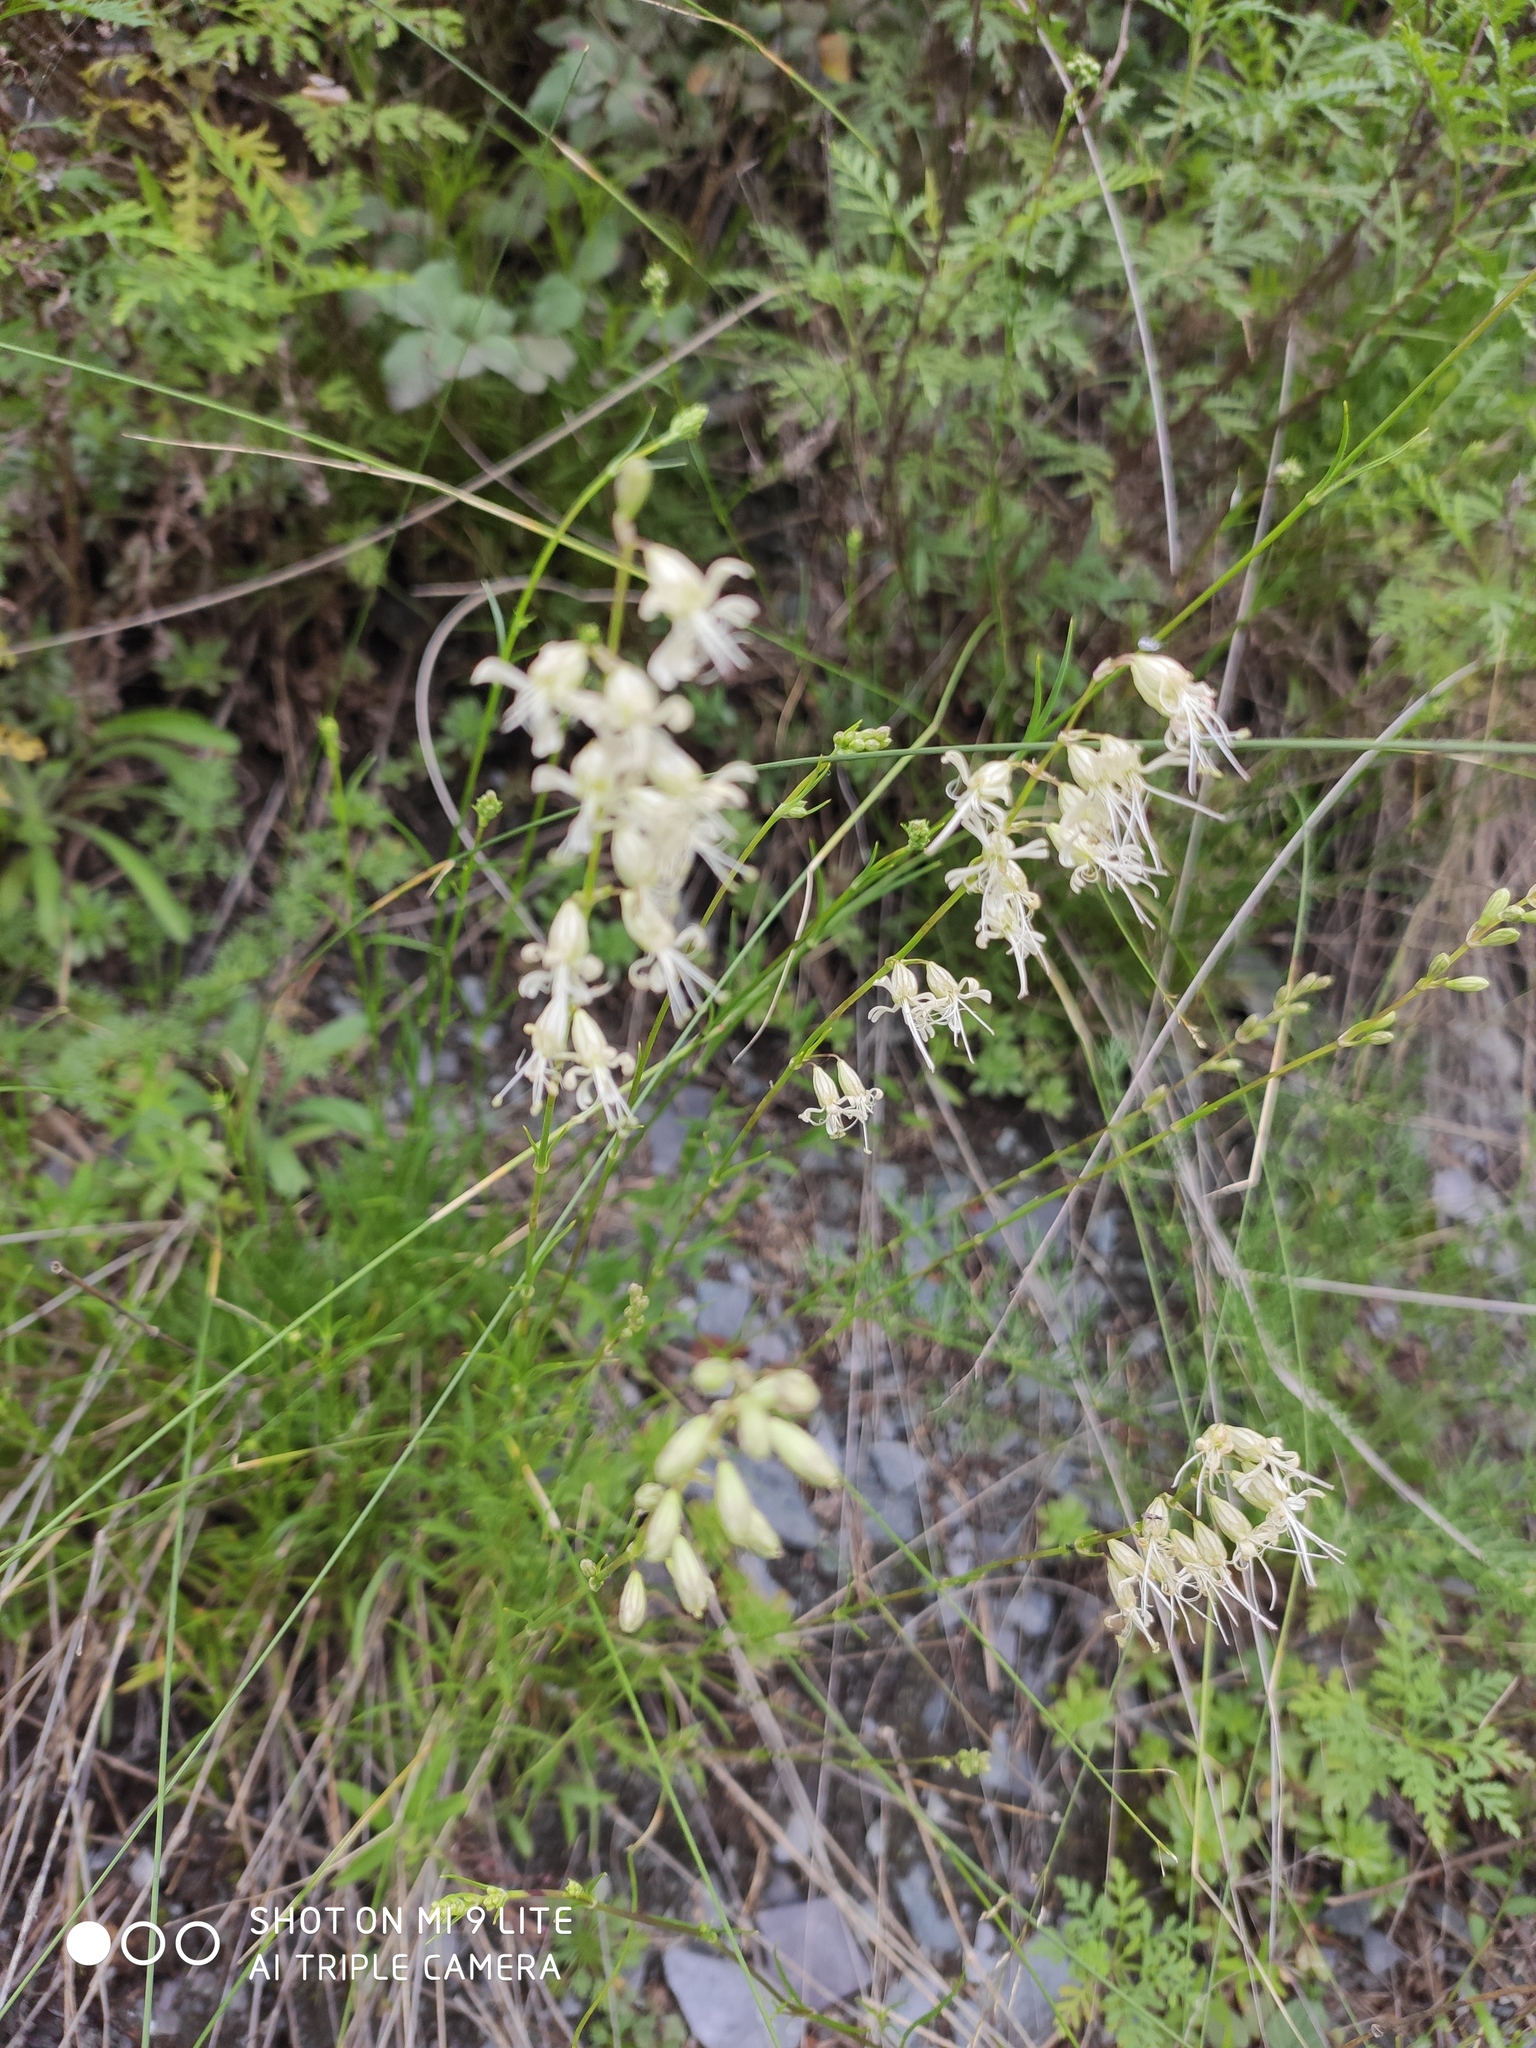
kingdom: Plantae
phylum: Tracheophyta
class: Magnoliopsida
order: Caryophyllales
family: Caryophyllaceae
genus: Silene
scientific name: Silene
